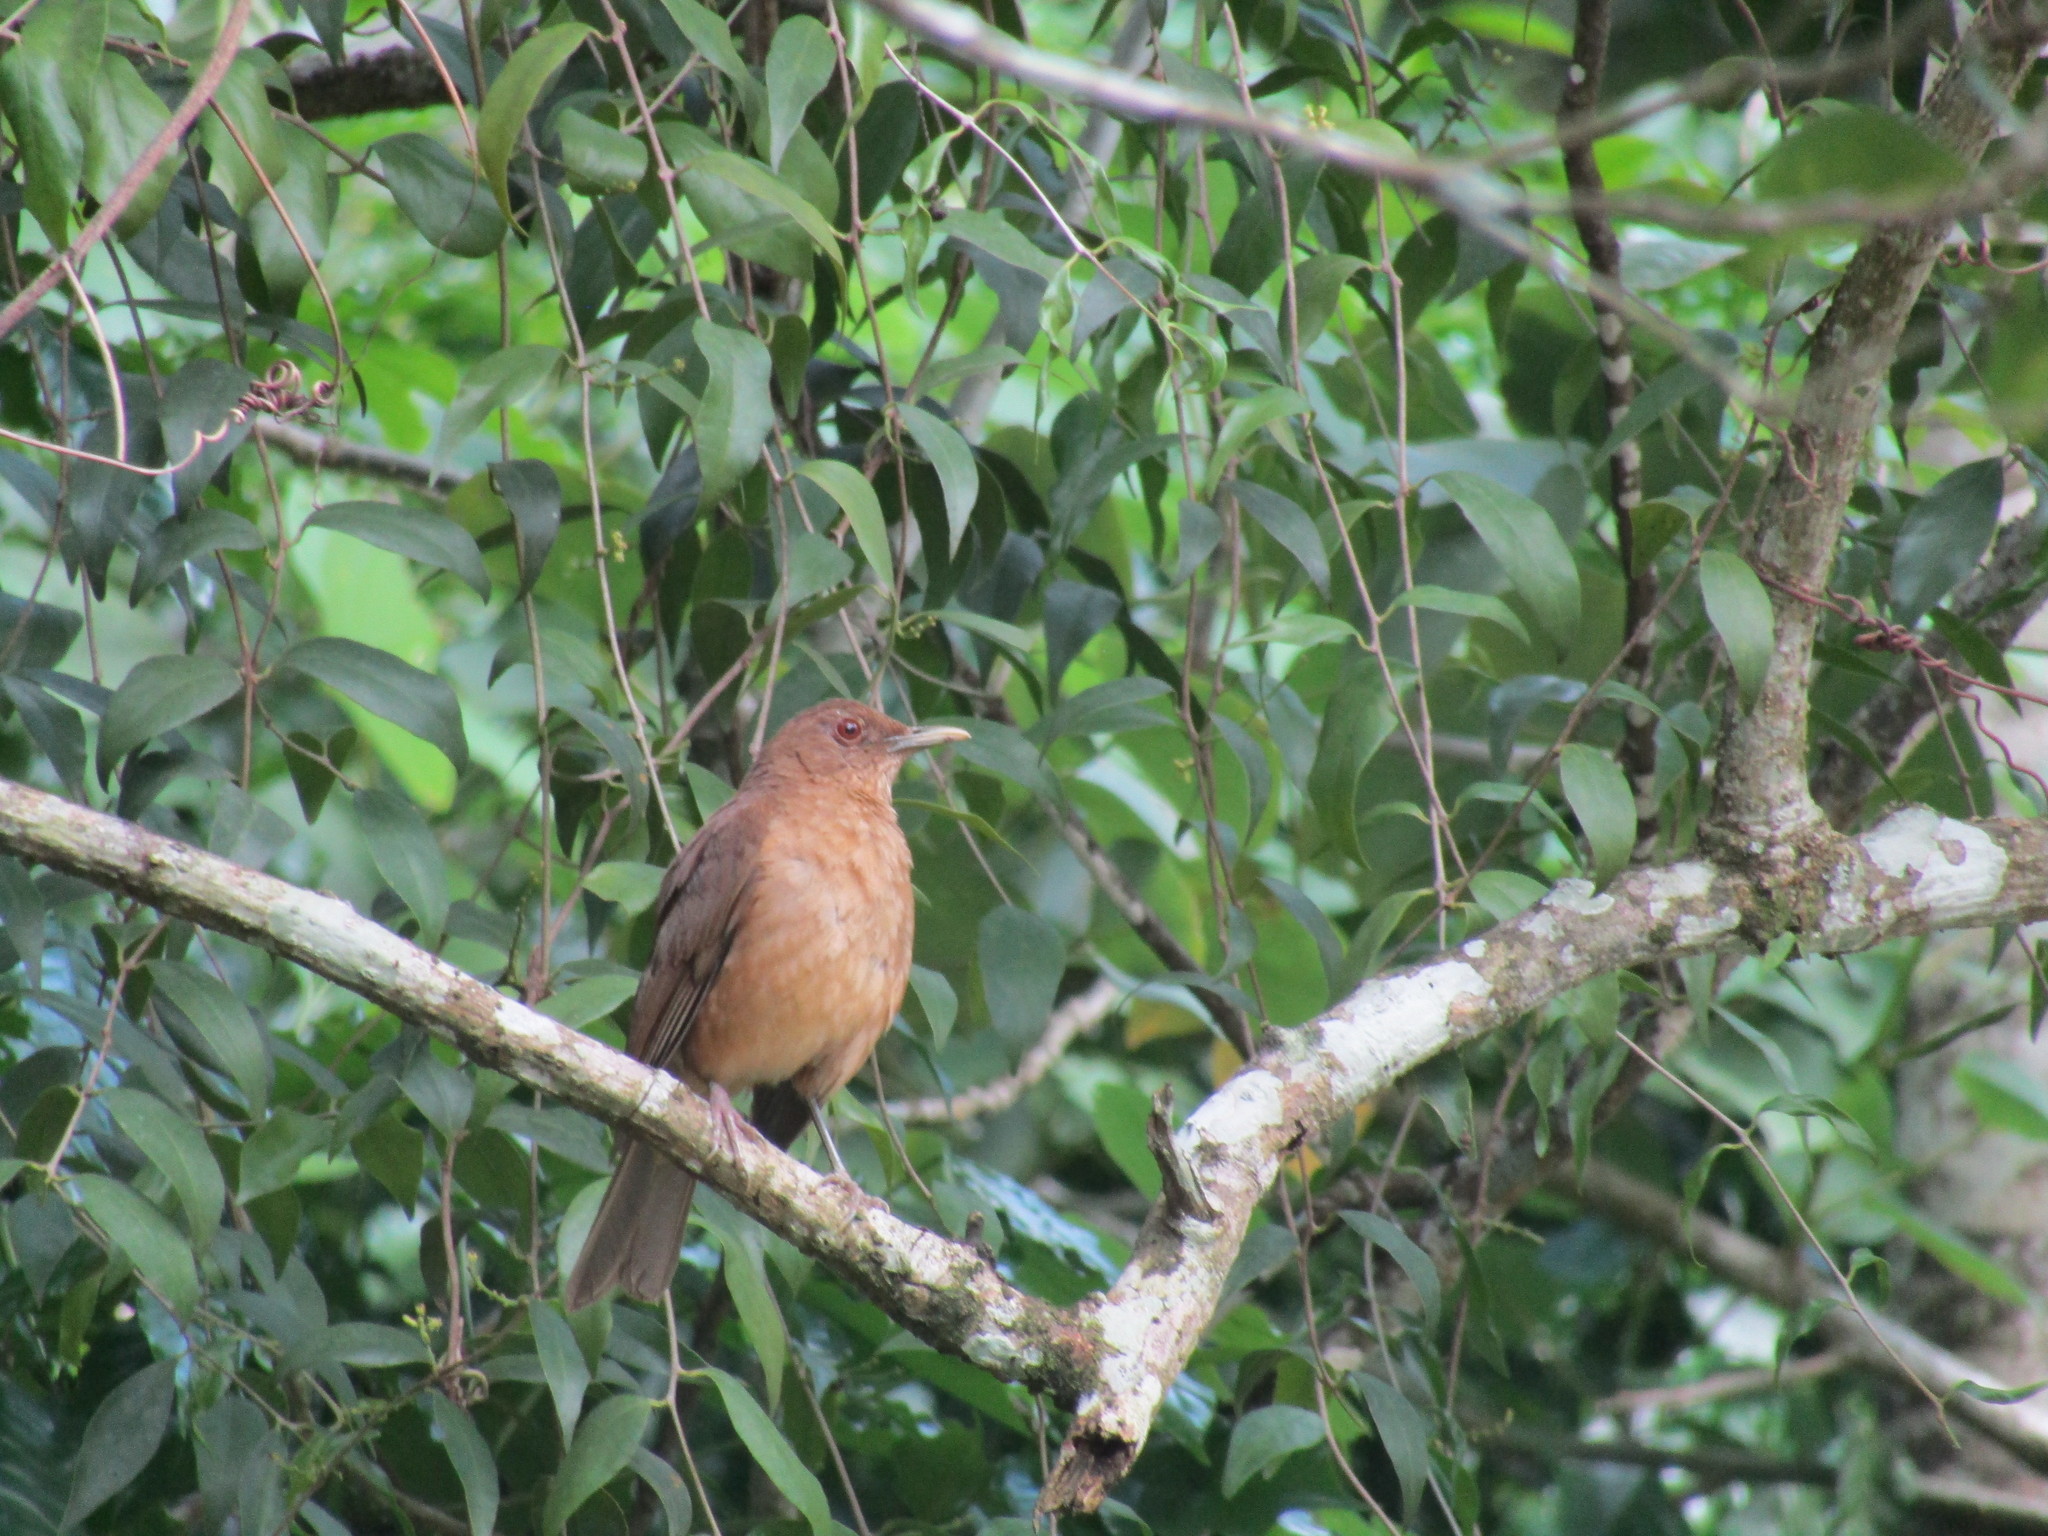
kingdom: Animalia
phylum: Chordata
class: Aves
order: Passeriformes
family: Turdidae
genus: Turdus
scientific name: Turdus grayi
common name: Clay-colored thrush
